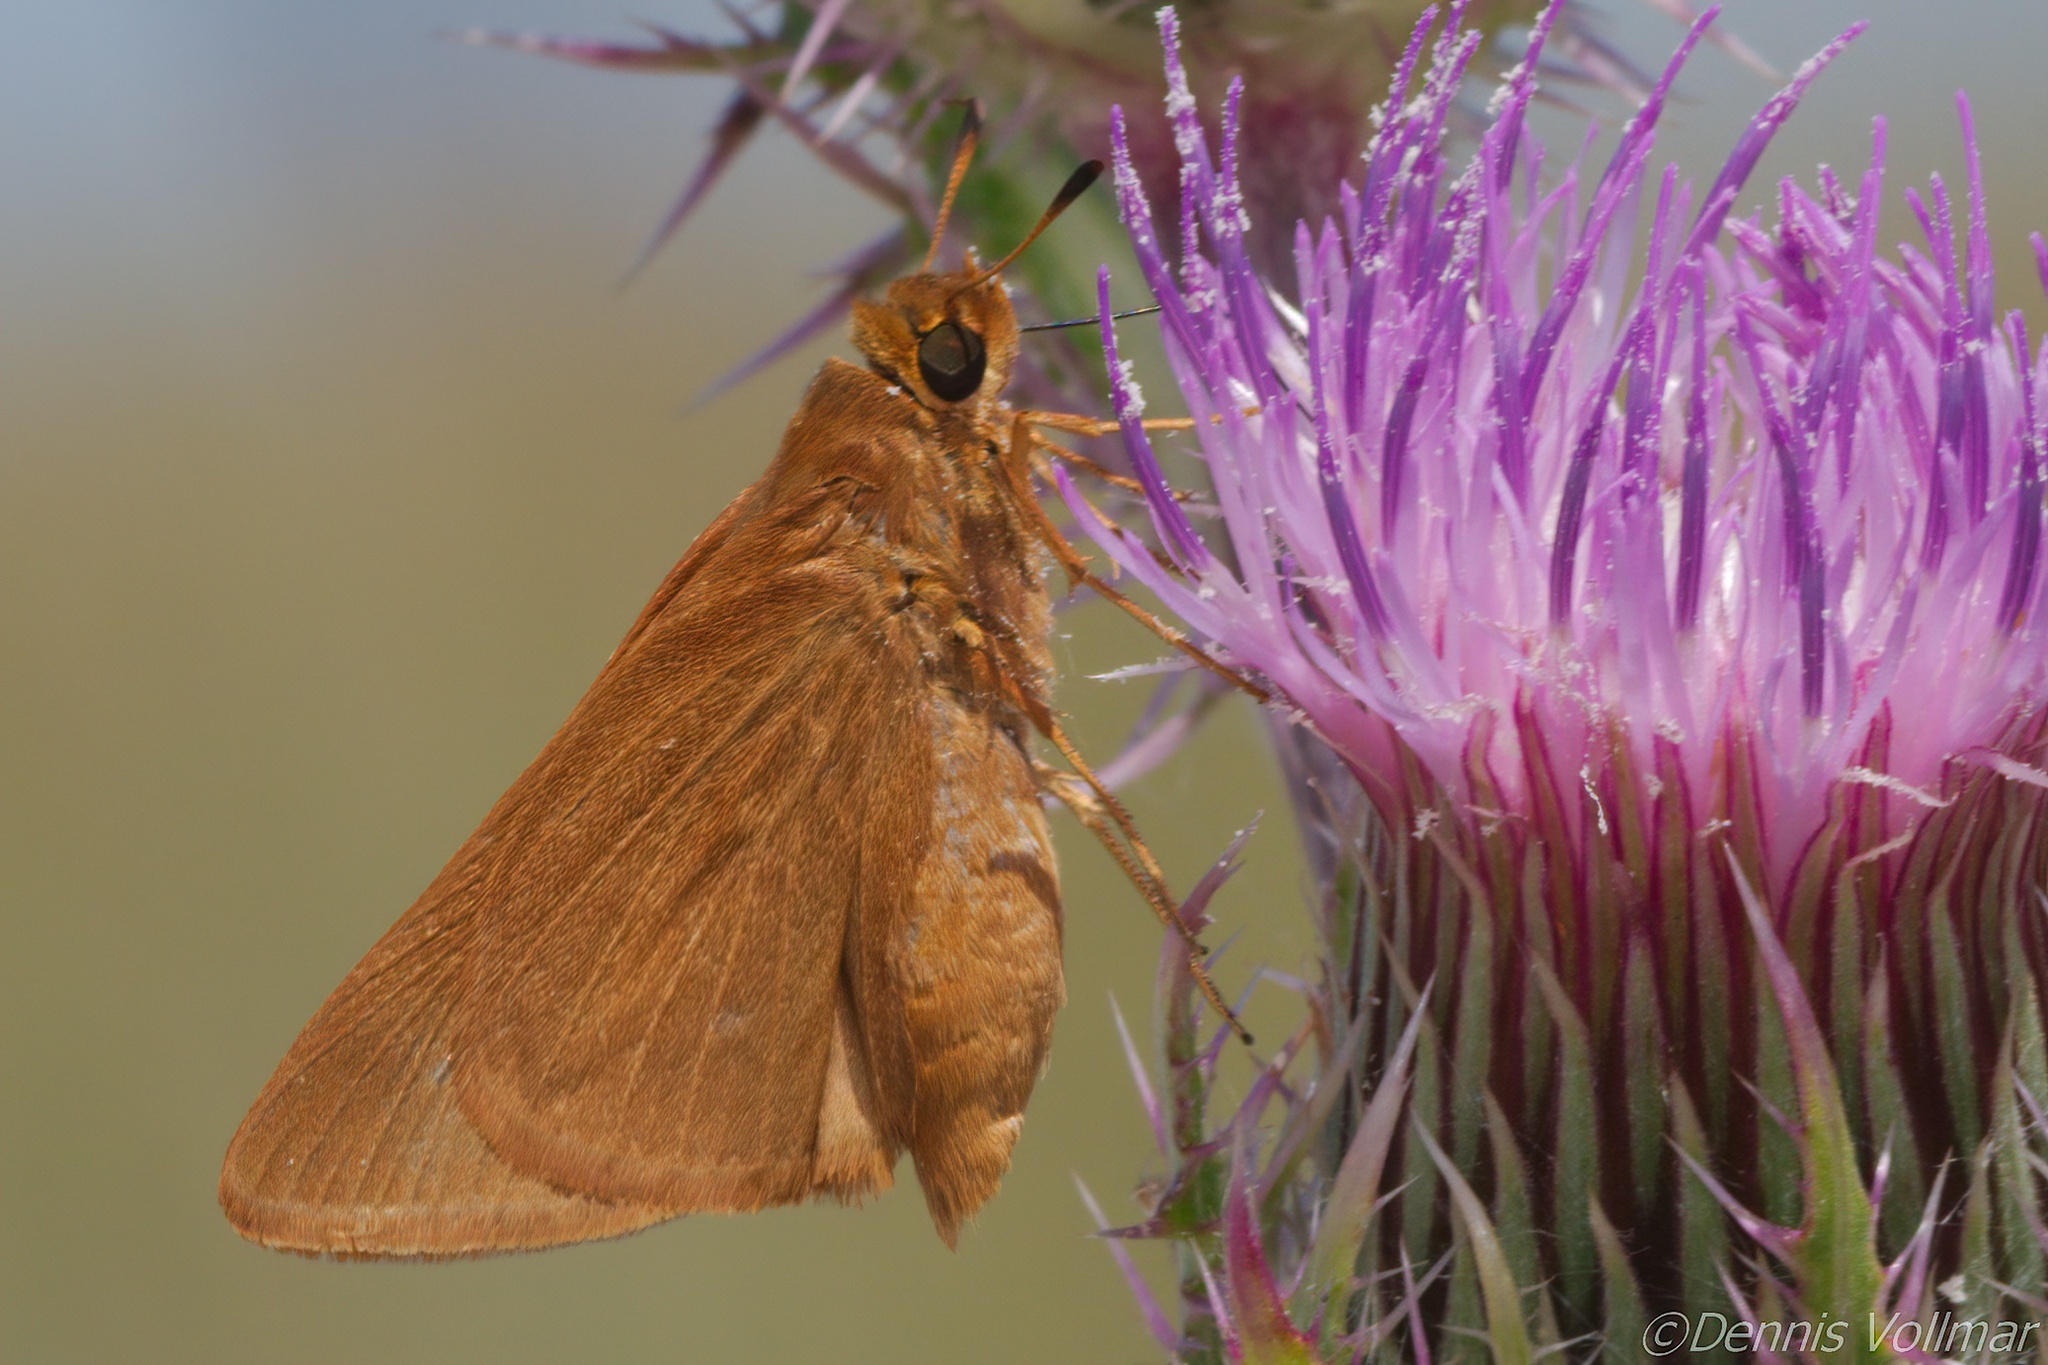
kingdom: Animalia
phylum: Arthropoda
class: Insecta
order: Lepidoptera
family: Hesperiidae
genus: Euphyes
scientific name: Euphyes pilatka
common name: Palatka skipper
